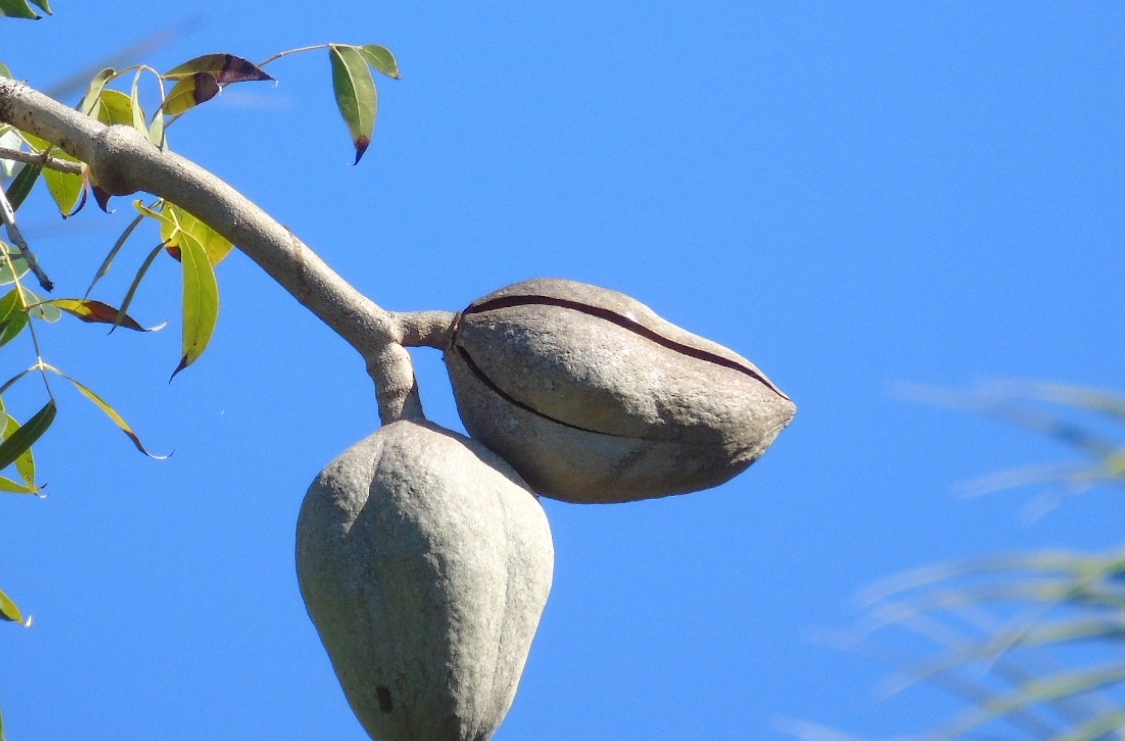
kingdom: Plantae
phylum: Tracheophyta
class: Magnoliopsida
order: Sapindales
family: Meliaceae
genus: Swietenia
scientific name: Swietenia humilis
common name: Pacific coast mahogany
